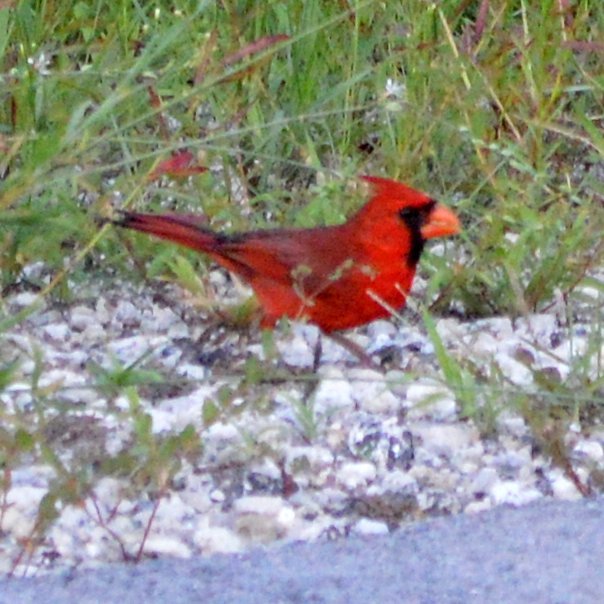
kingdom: Animalia
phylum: Chordata
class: Aves
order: Passeriformes
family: Cardinalidae
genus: Cardinalis
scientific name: Cardinalis cardinalis
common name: Northern cardinal
